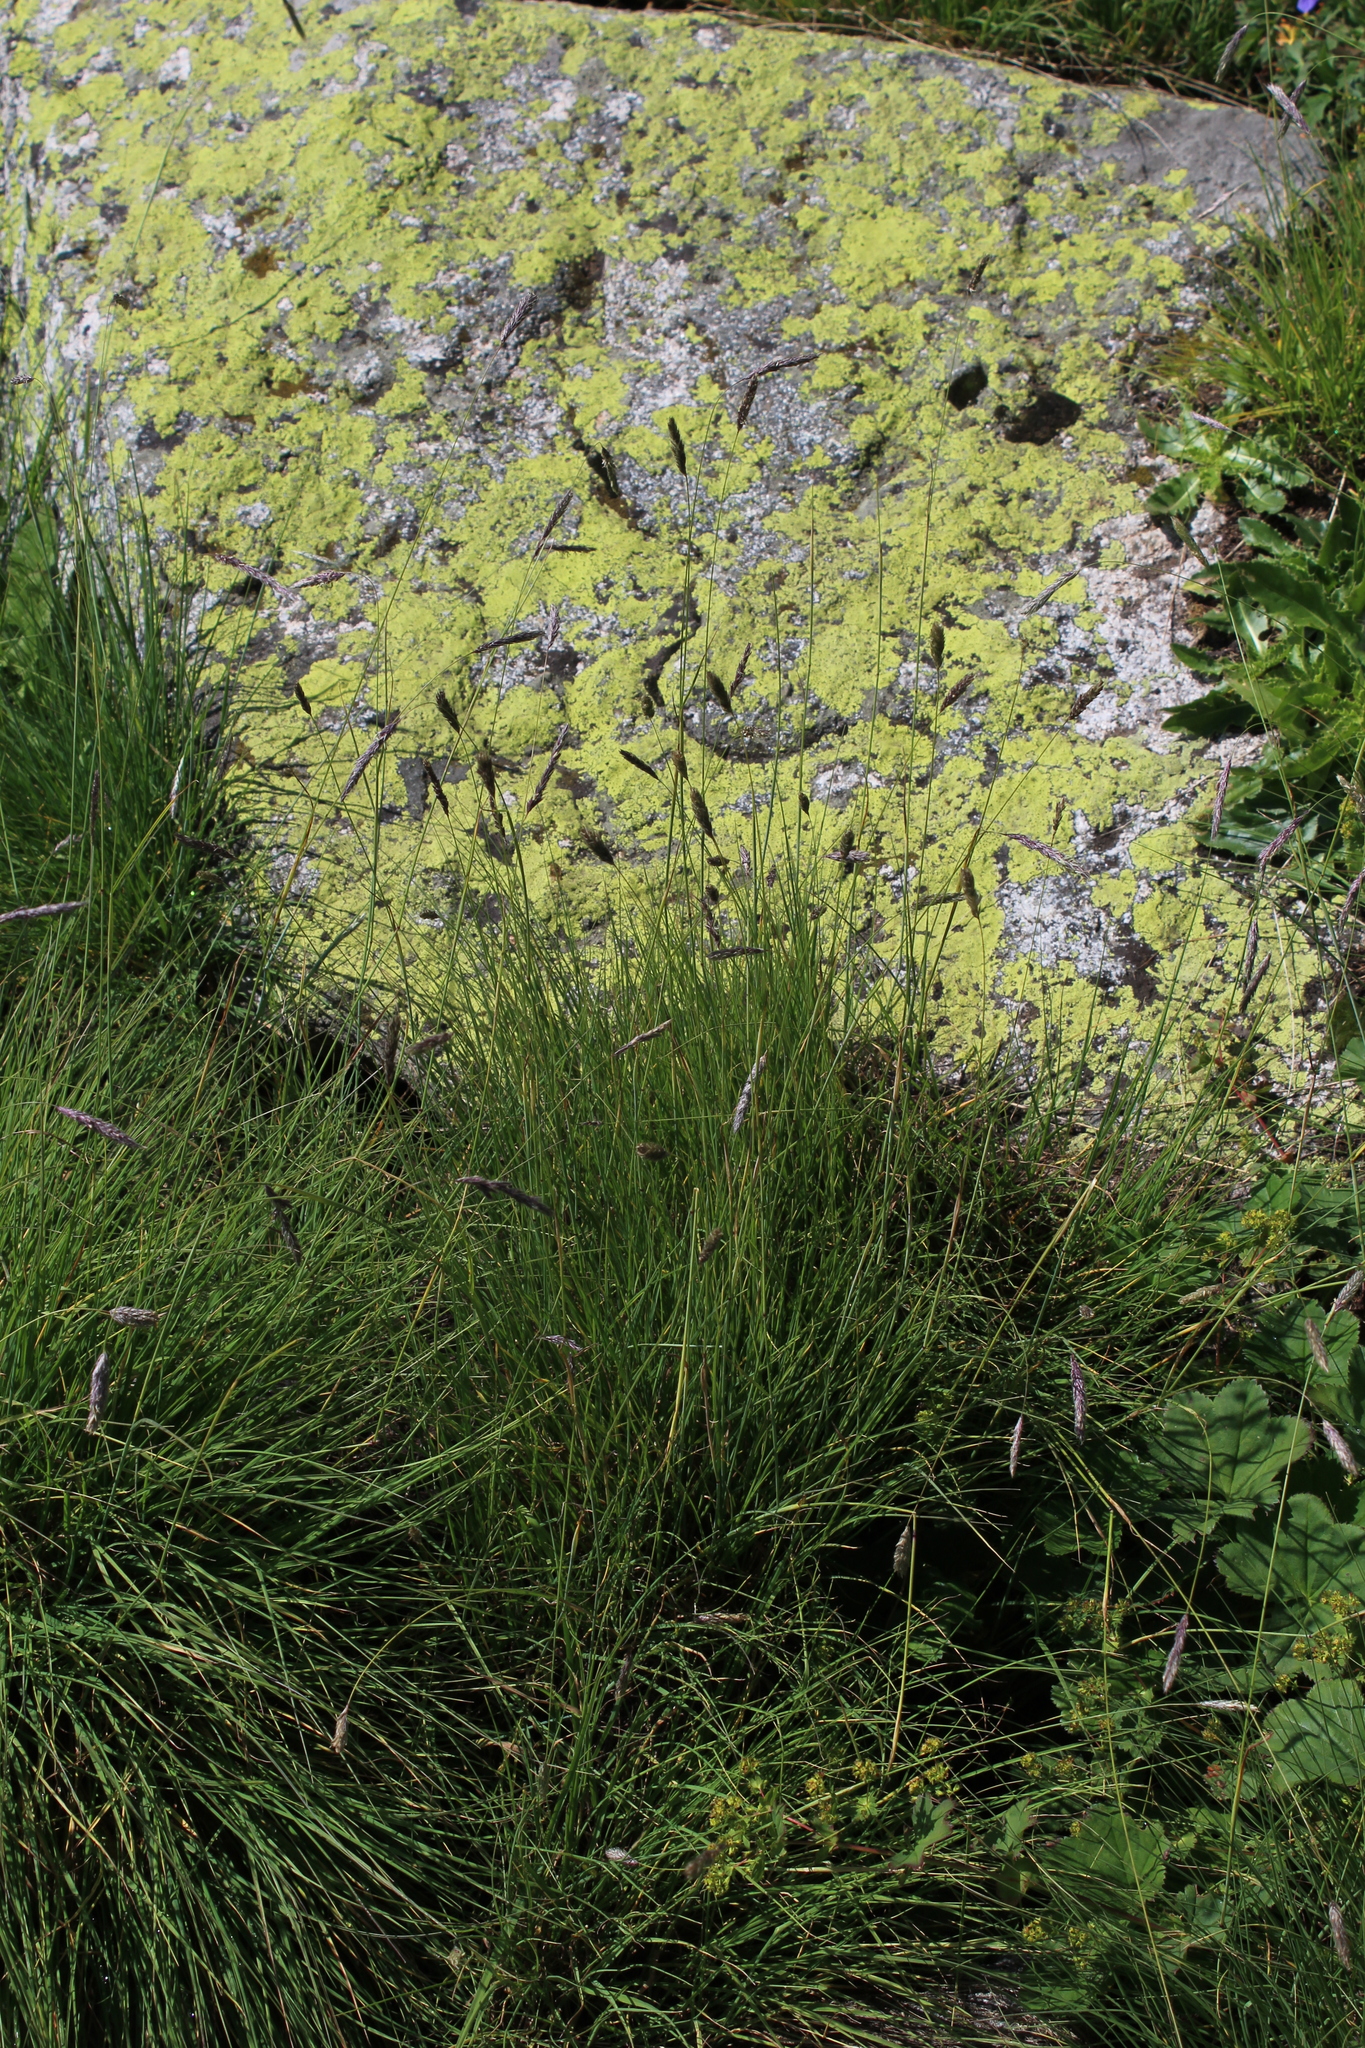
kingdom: Plantae
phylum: Tracheophyta
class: Liliopsida
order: Poales
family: Poaceae
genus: Alopecurus
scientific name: Alopecurus ponticus
